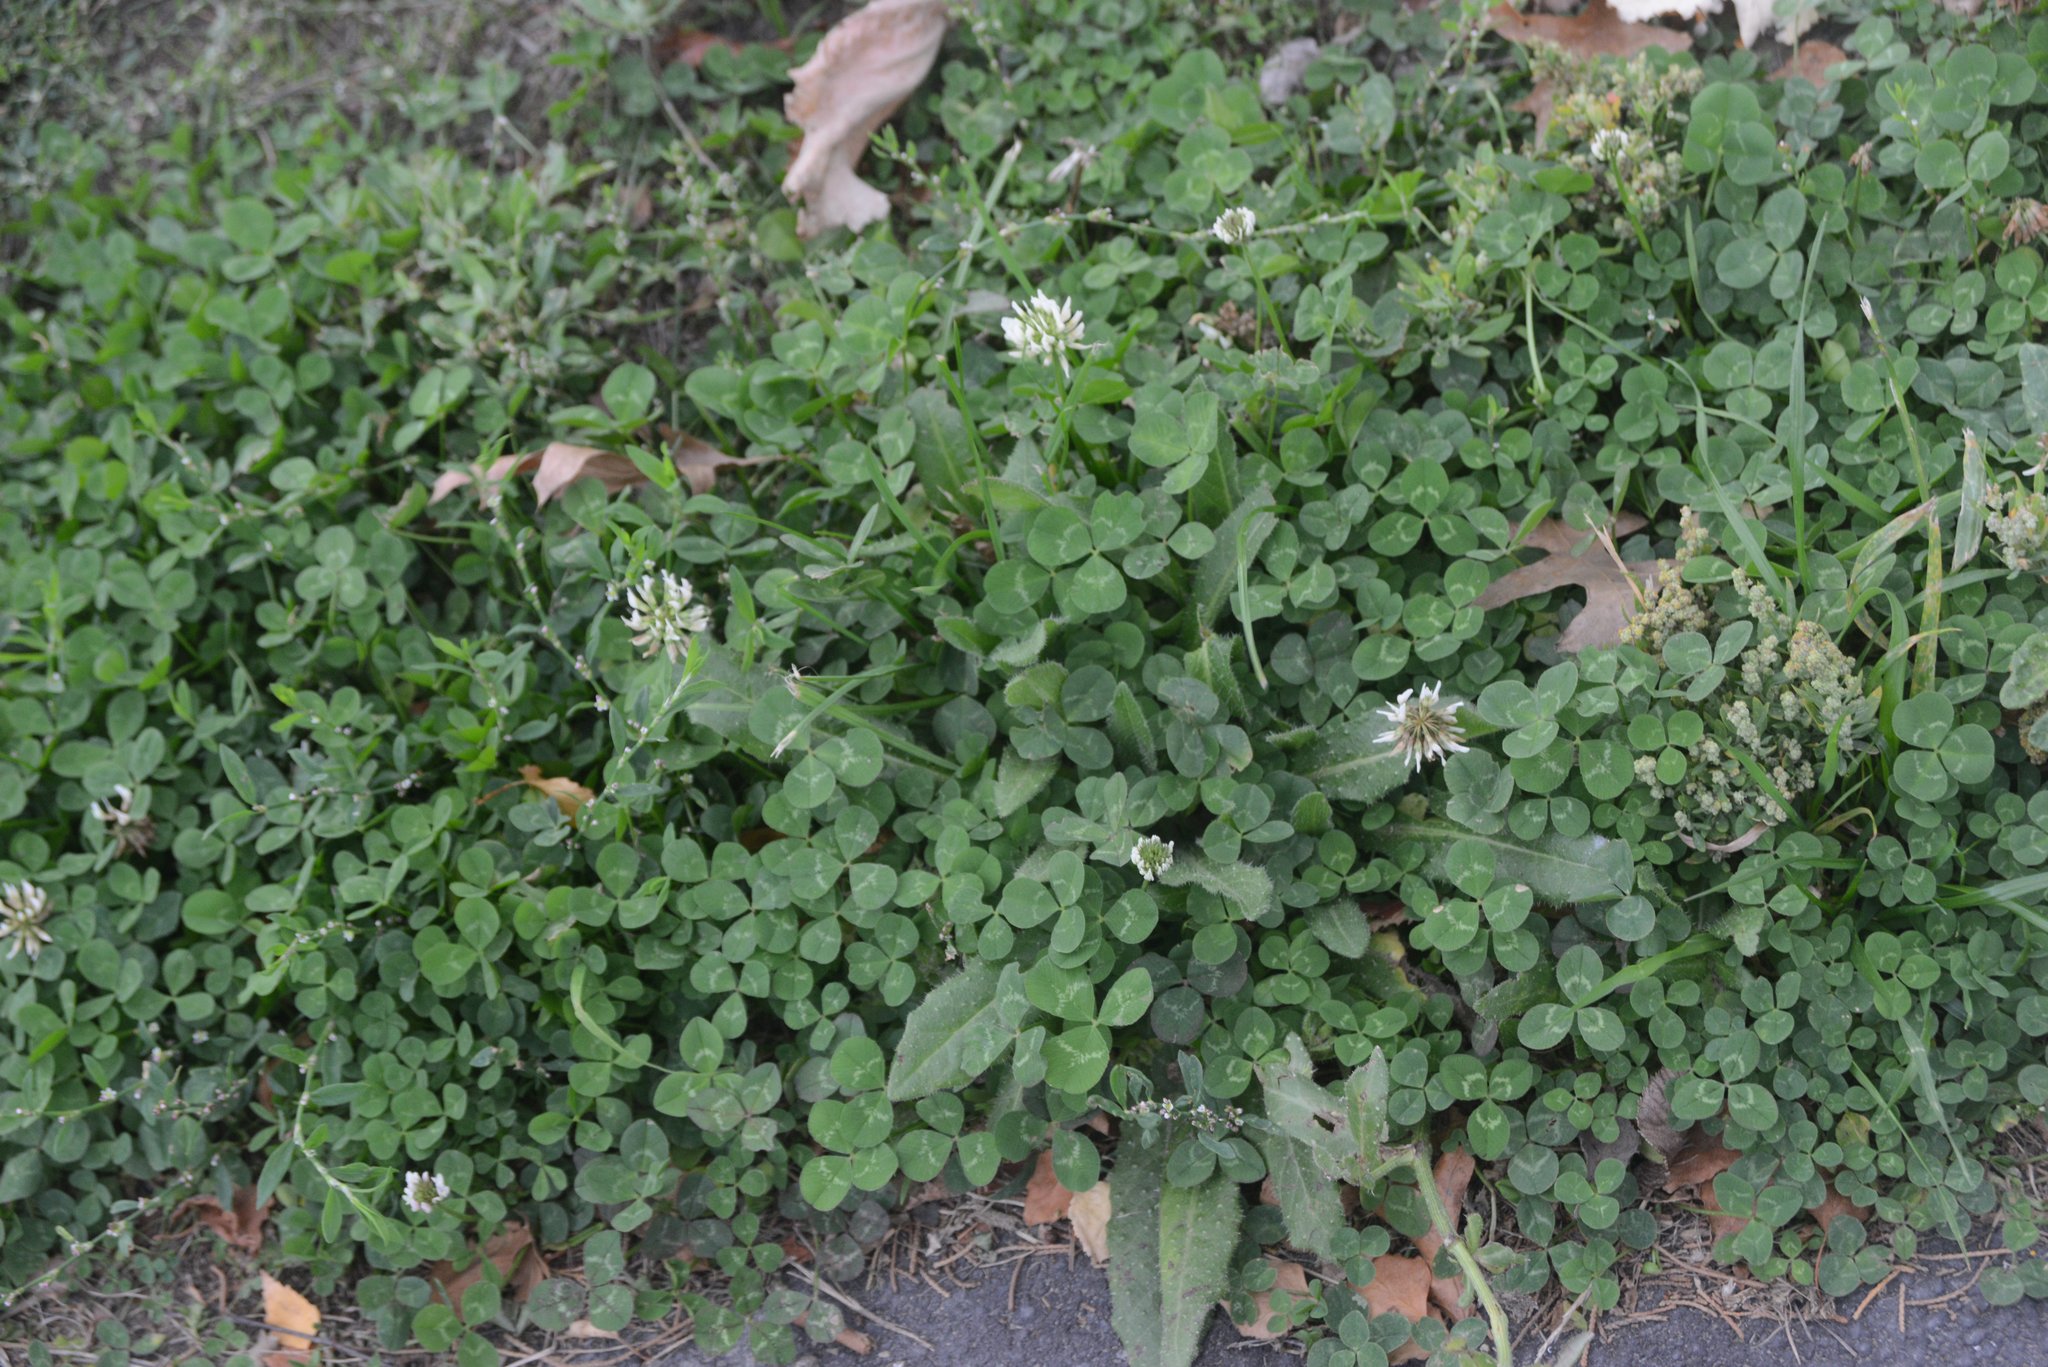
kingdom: Plantae
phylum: Tracheophyta
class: Magnoliopsida
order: Fabales
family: Fabaceae
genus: Trifolium
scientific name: Trifolium repens
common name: White clover
